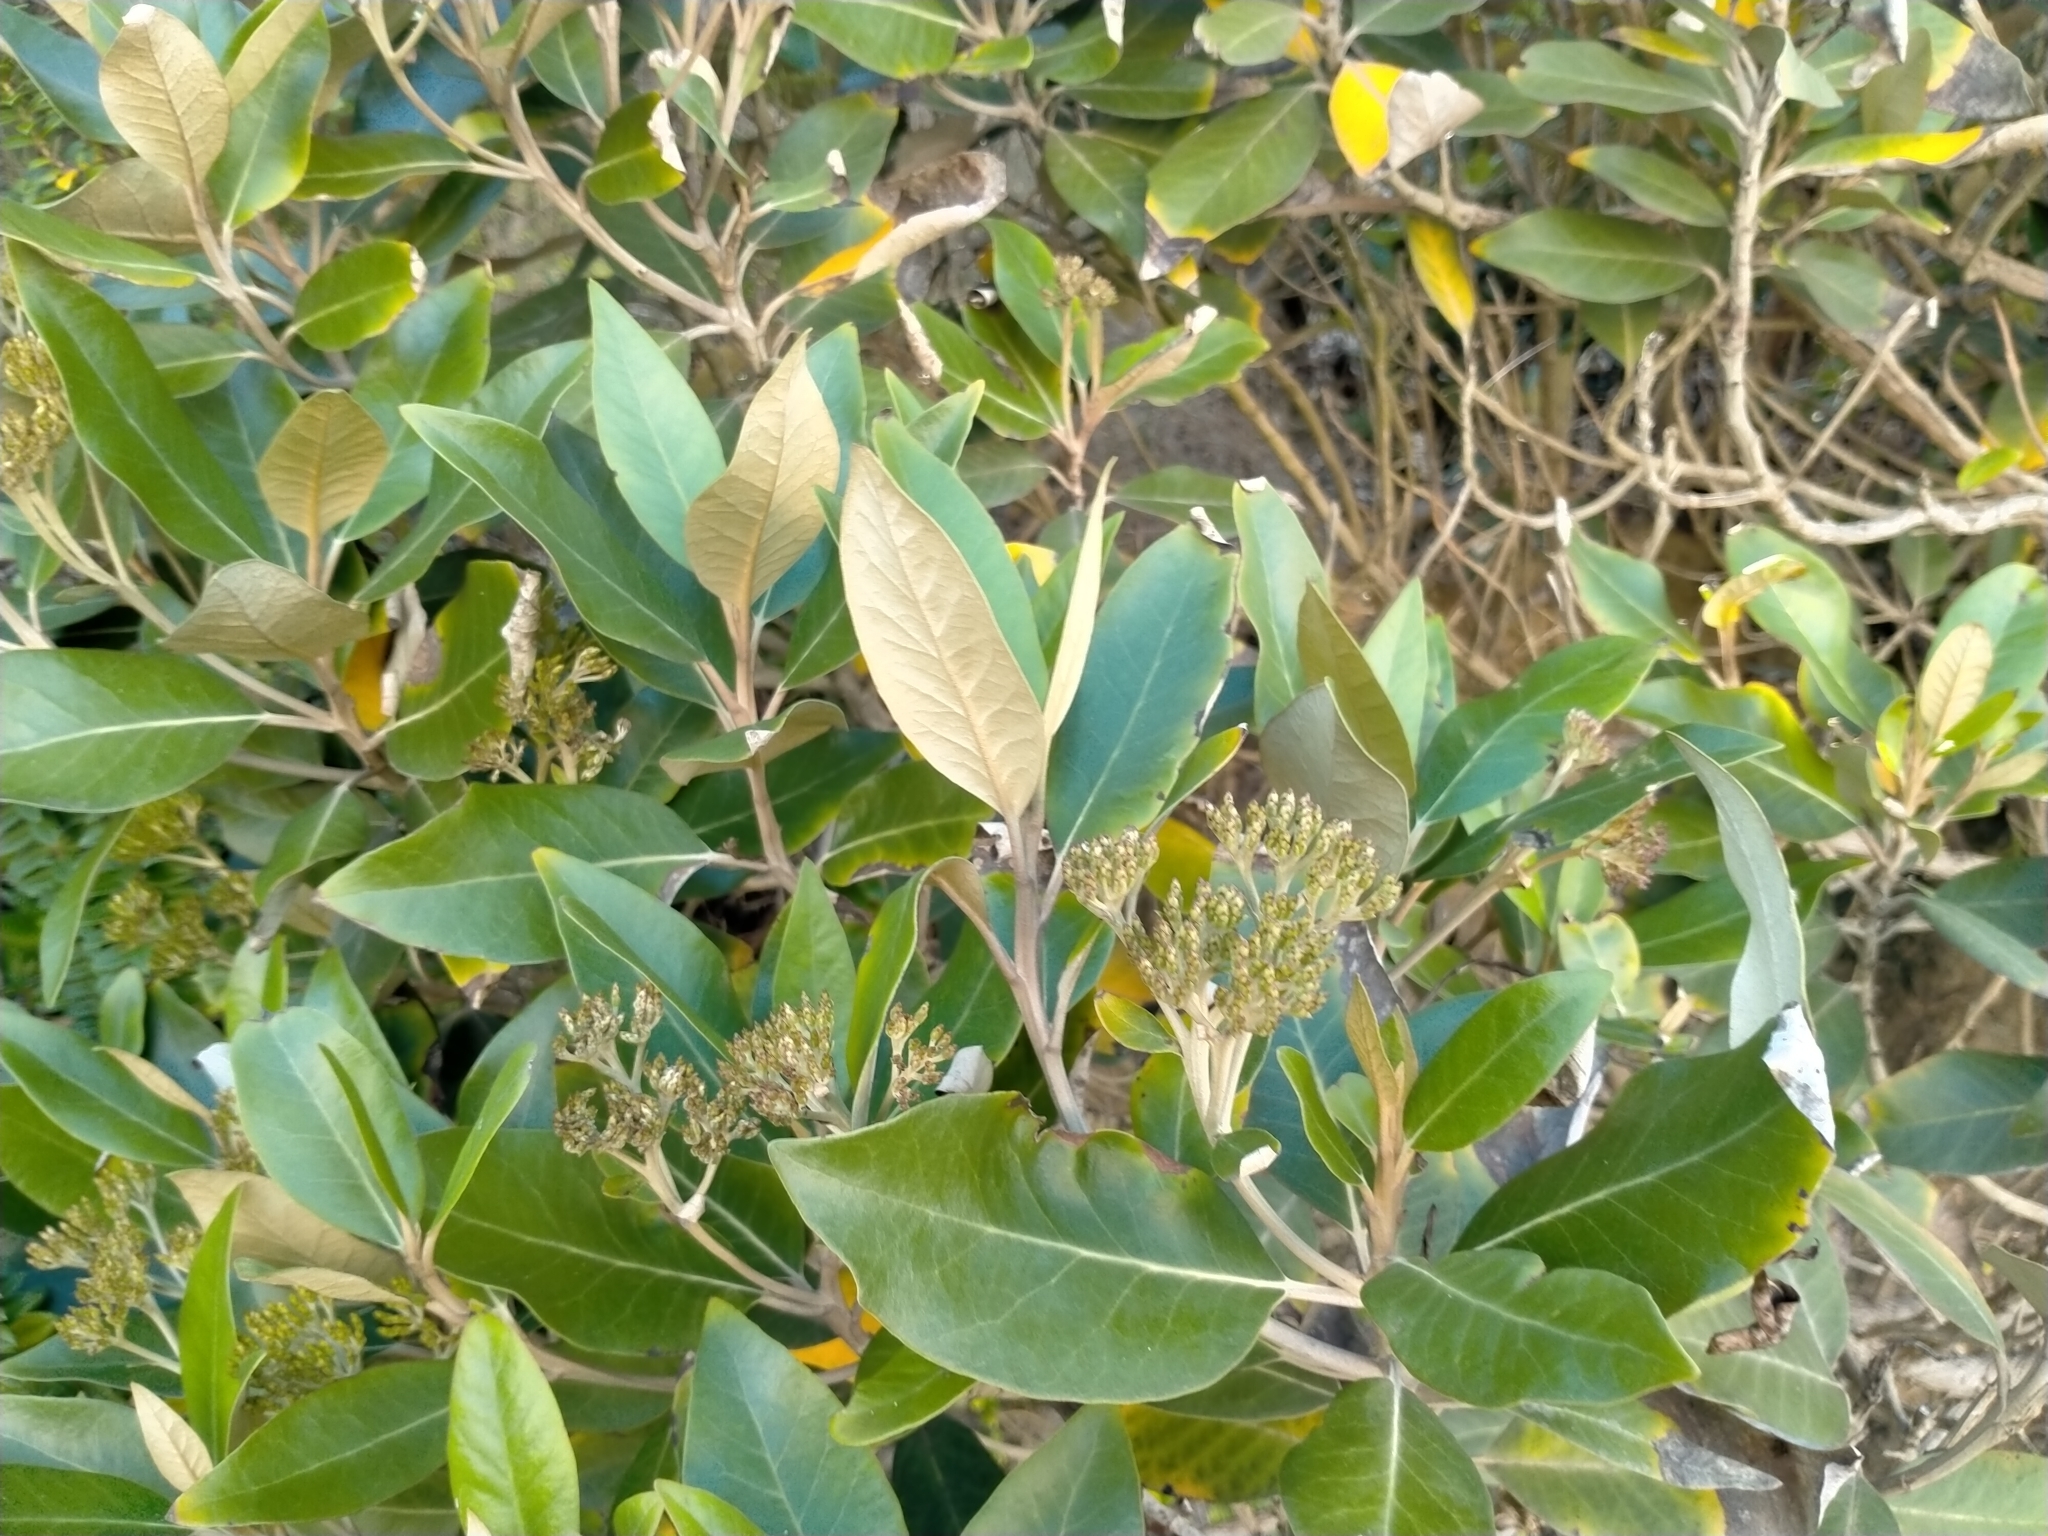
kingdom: Plantae
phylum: Tracheophyta
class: Magnoliopsida
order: Asterales
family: Asteraceae
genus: Olearia
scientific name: Olearia avicenniifolia
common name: Mangrove-leaf daisybush
